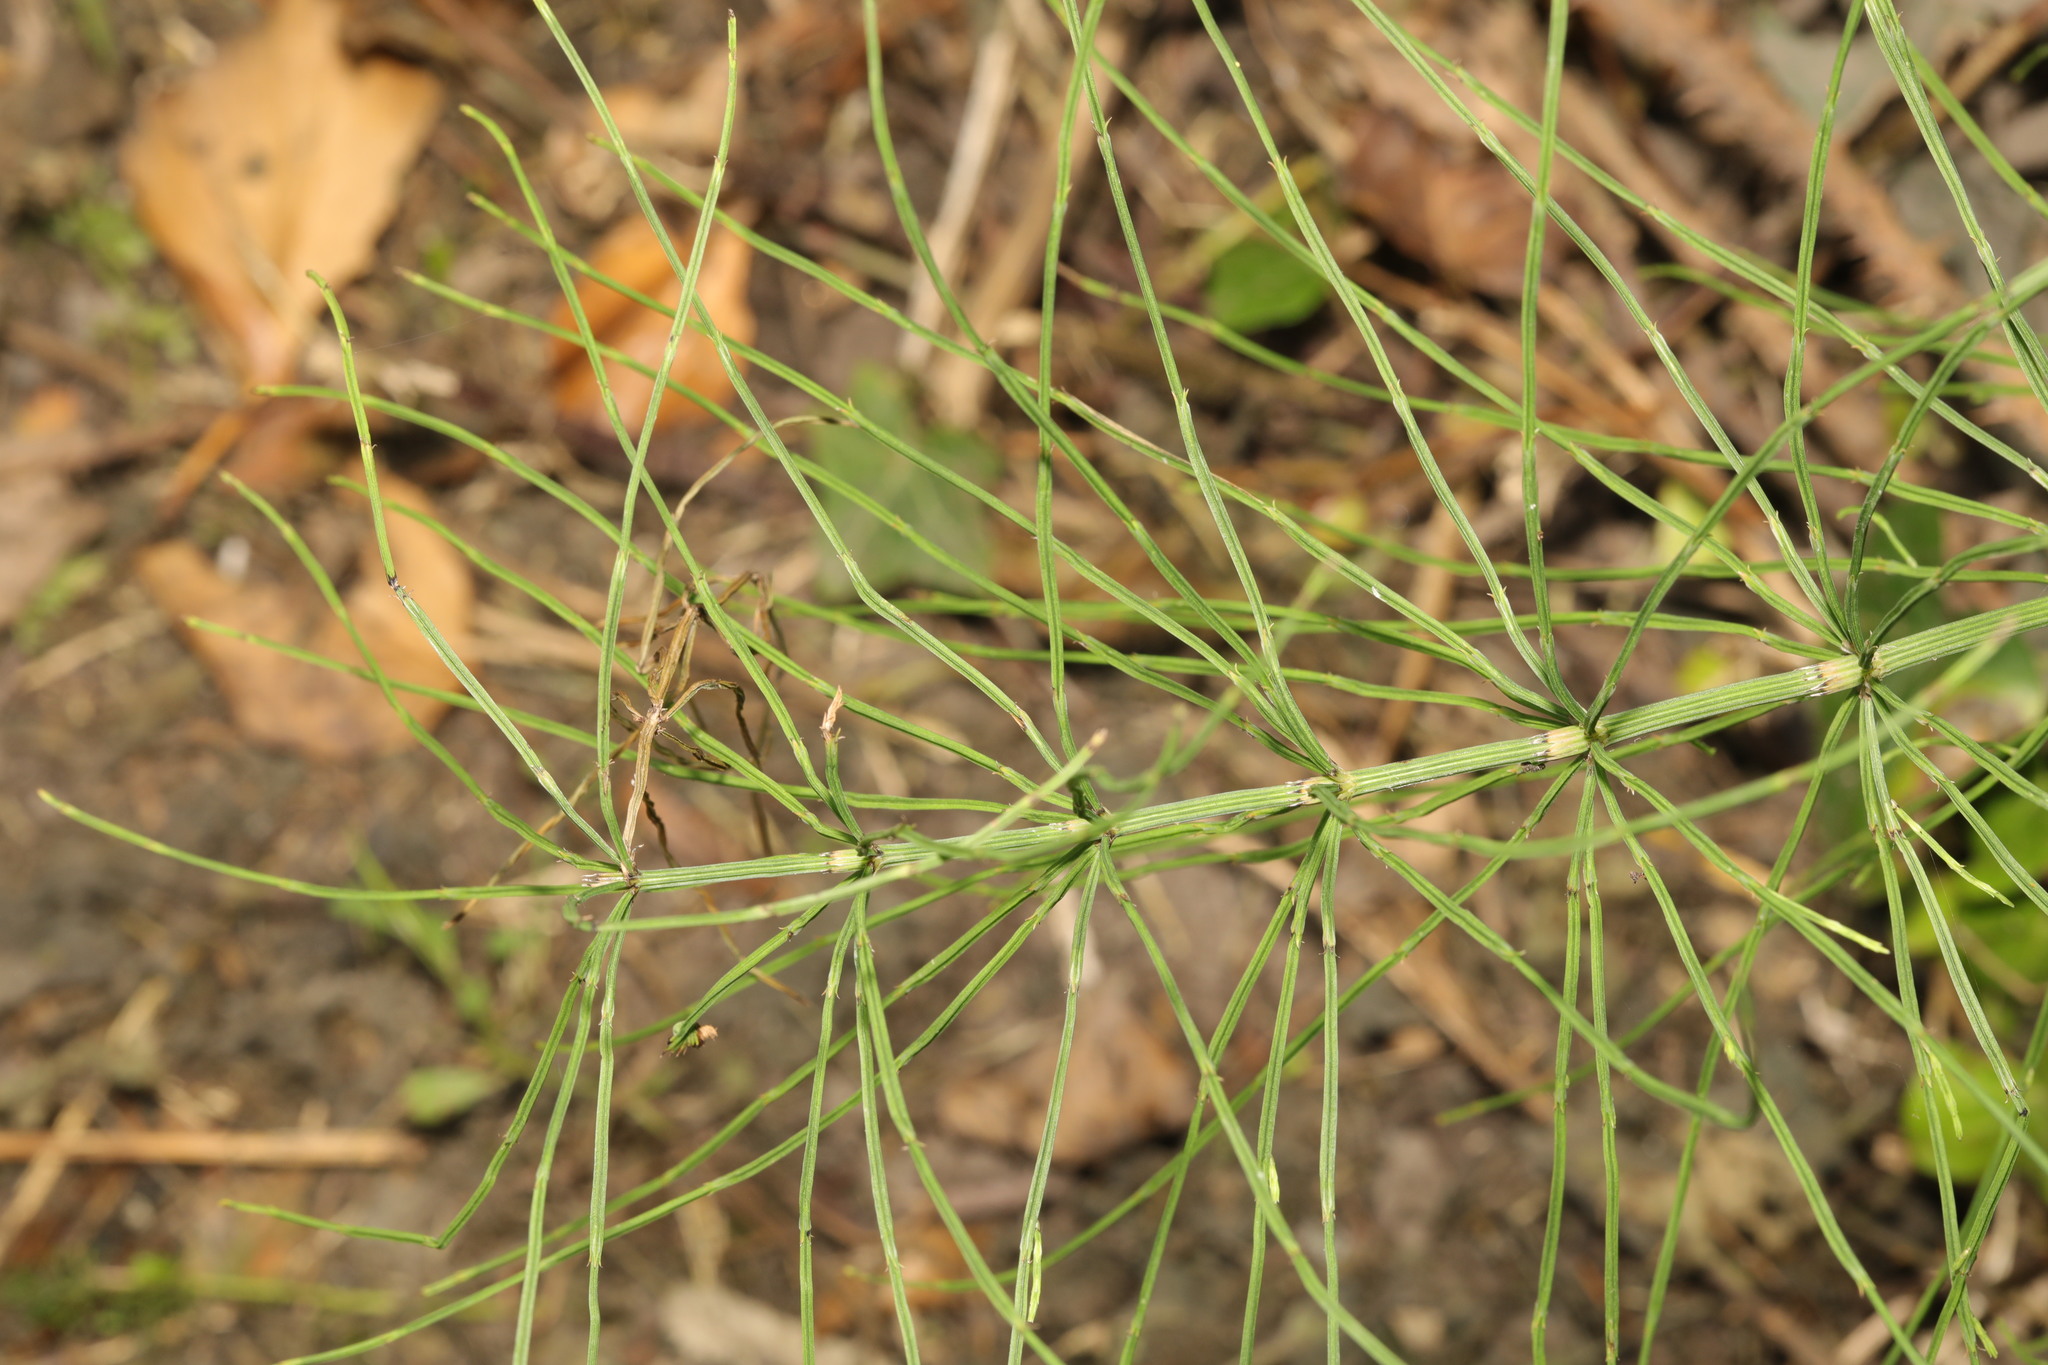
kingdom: Plantae
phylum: Tracheophyta
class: Polypodiopsida
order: Equisetales
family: Equisetaceae
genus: Equisetum
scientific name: Equisetum arvense
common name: Field horsetail
